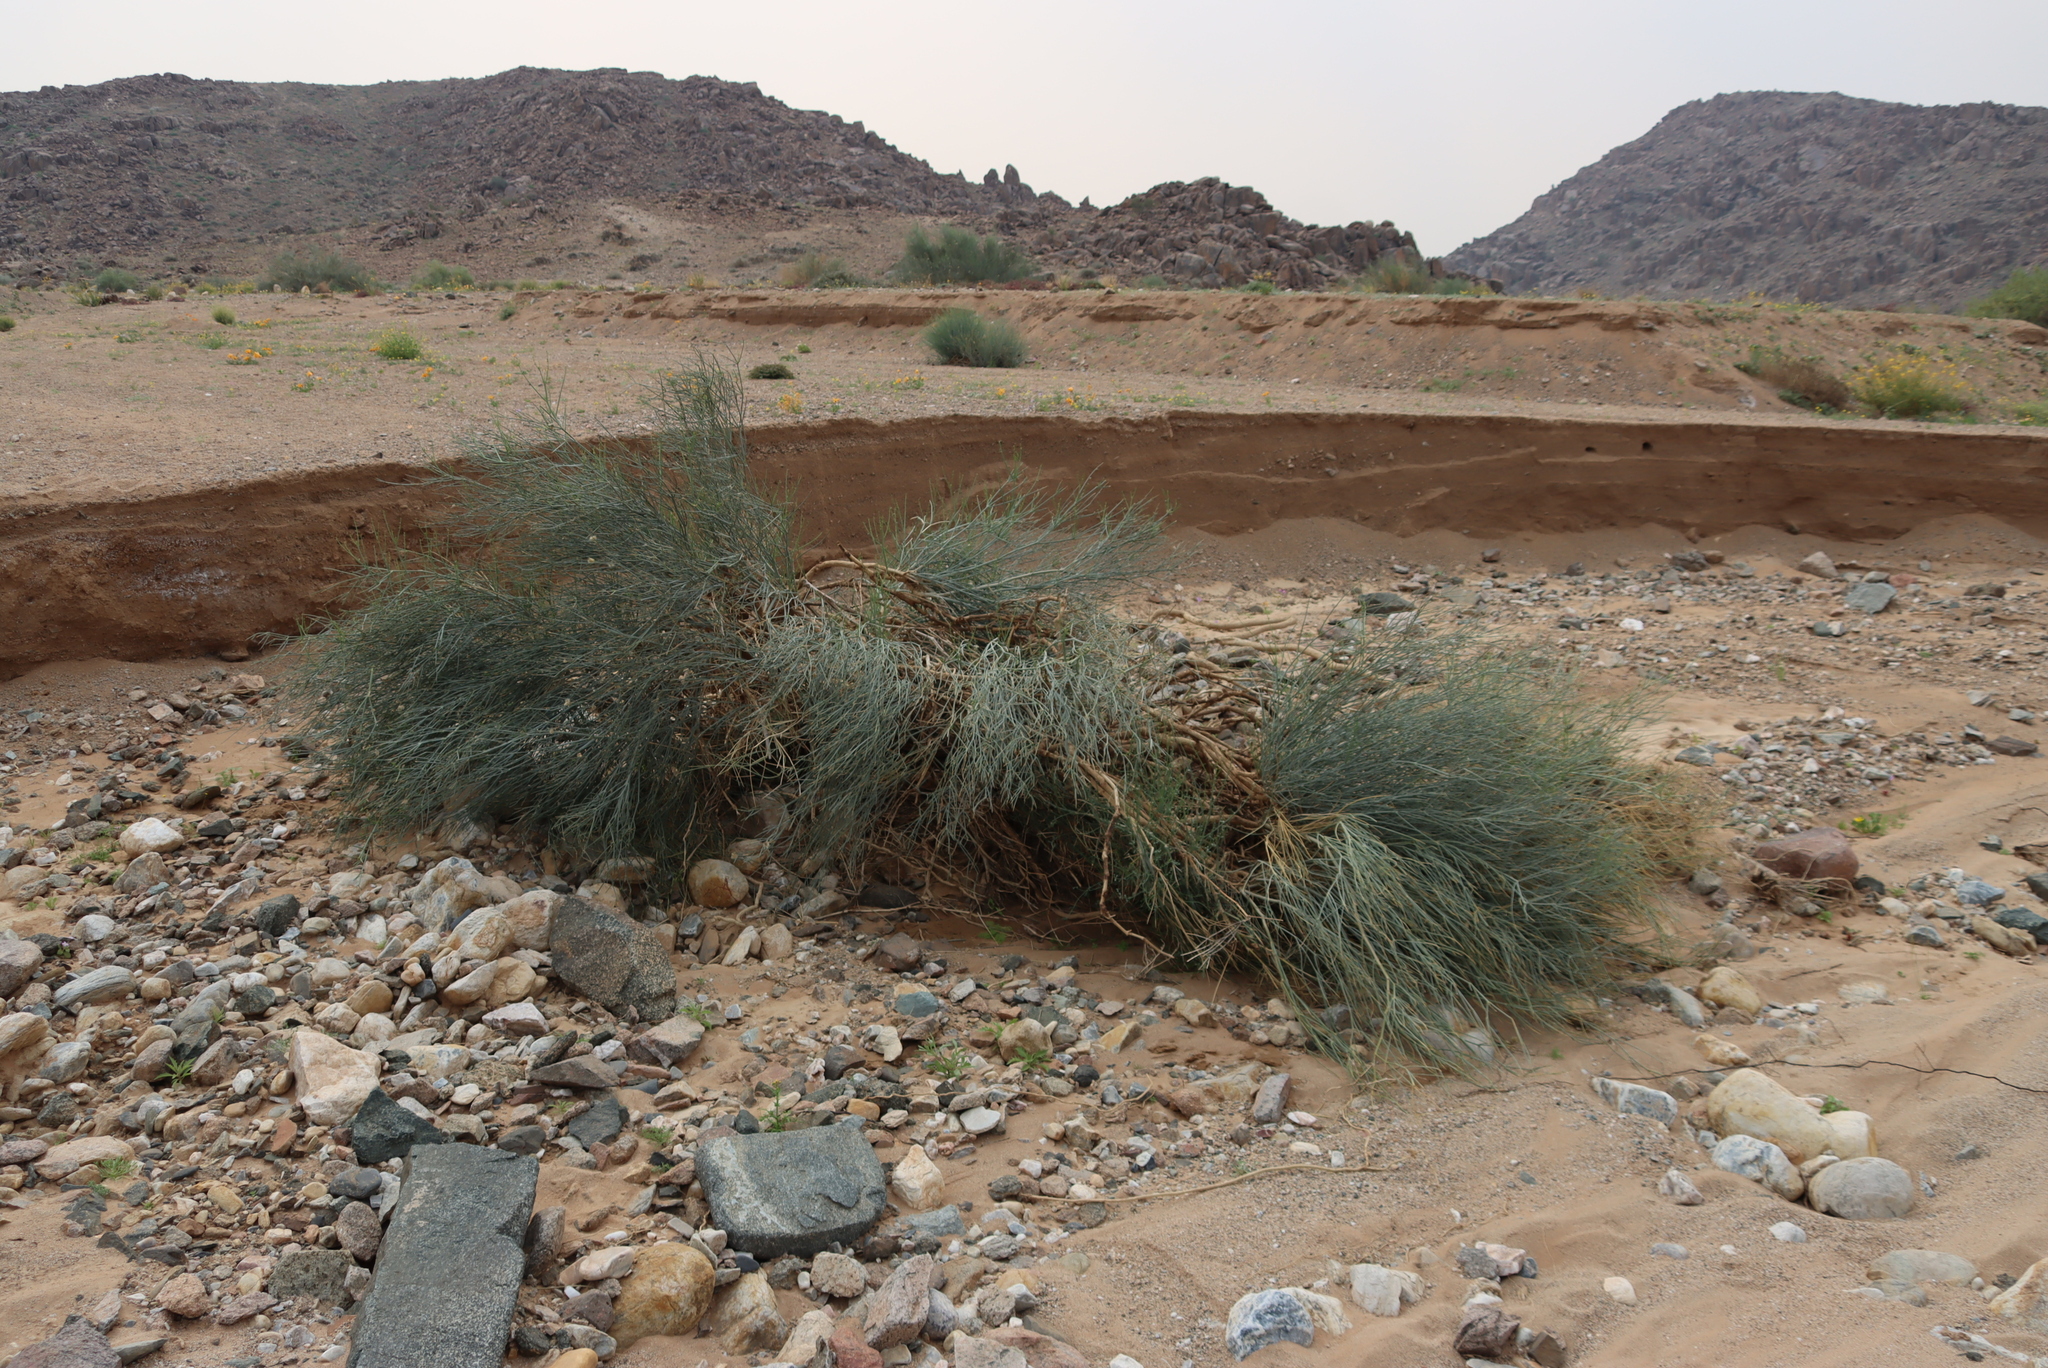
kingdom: Plantae
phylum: Tracheophyta
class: Magnoliopsida
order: Zygophyllales
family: Zygophyllaceae
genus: Sisyndite
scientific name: Sisyndite spartea
